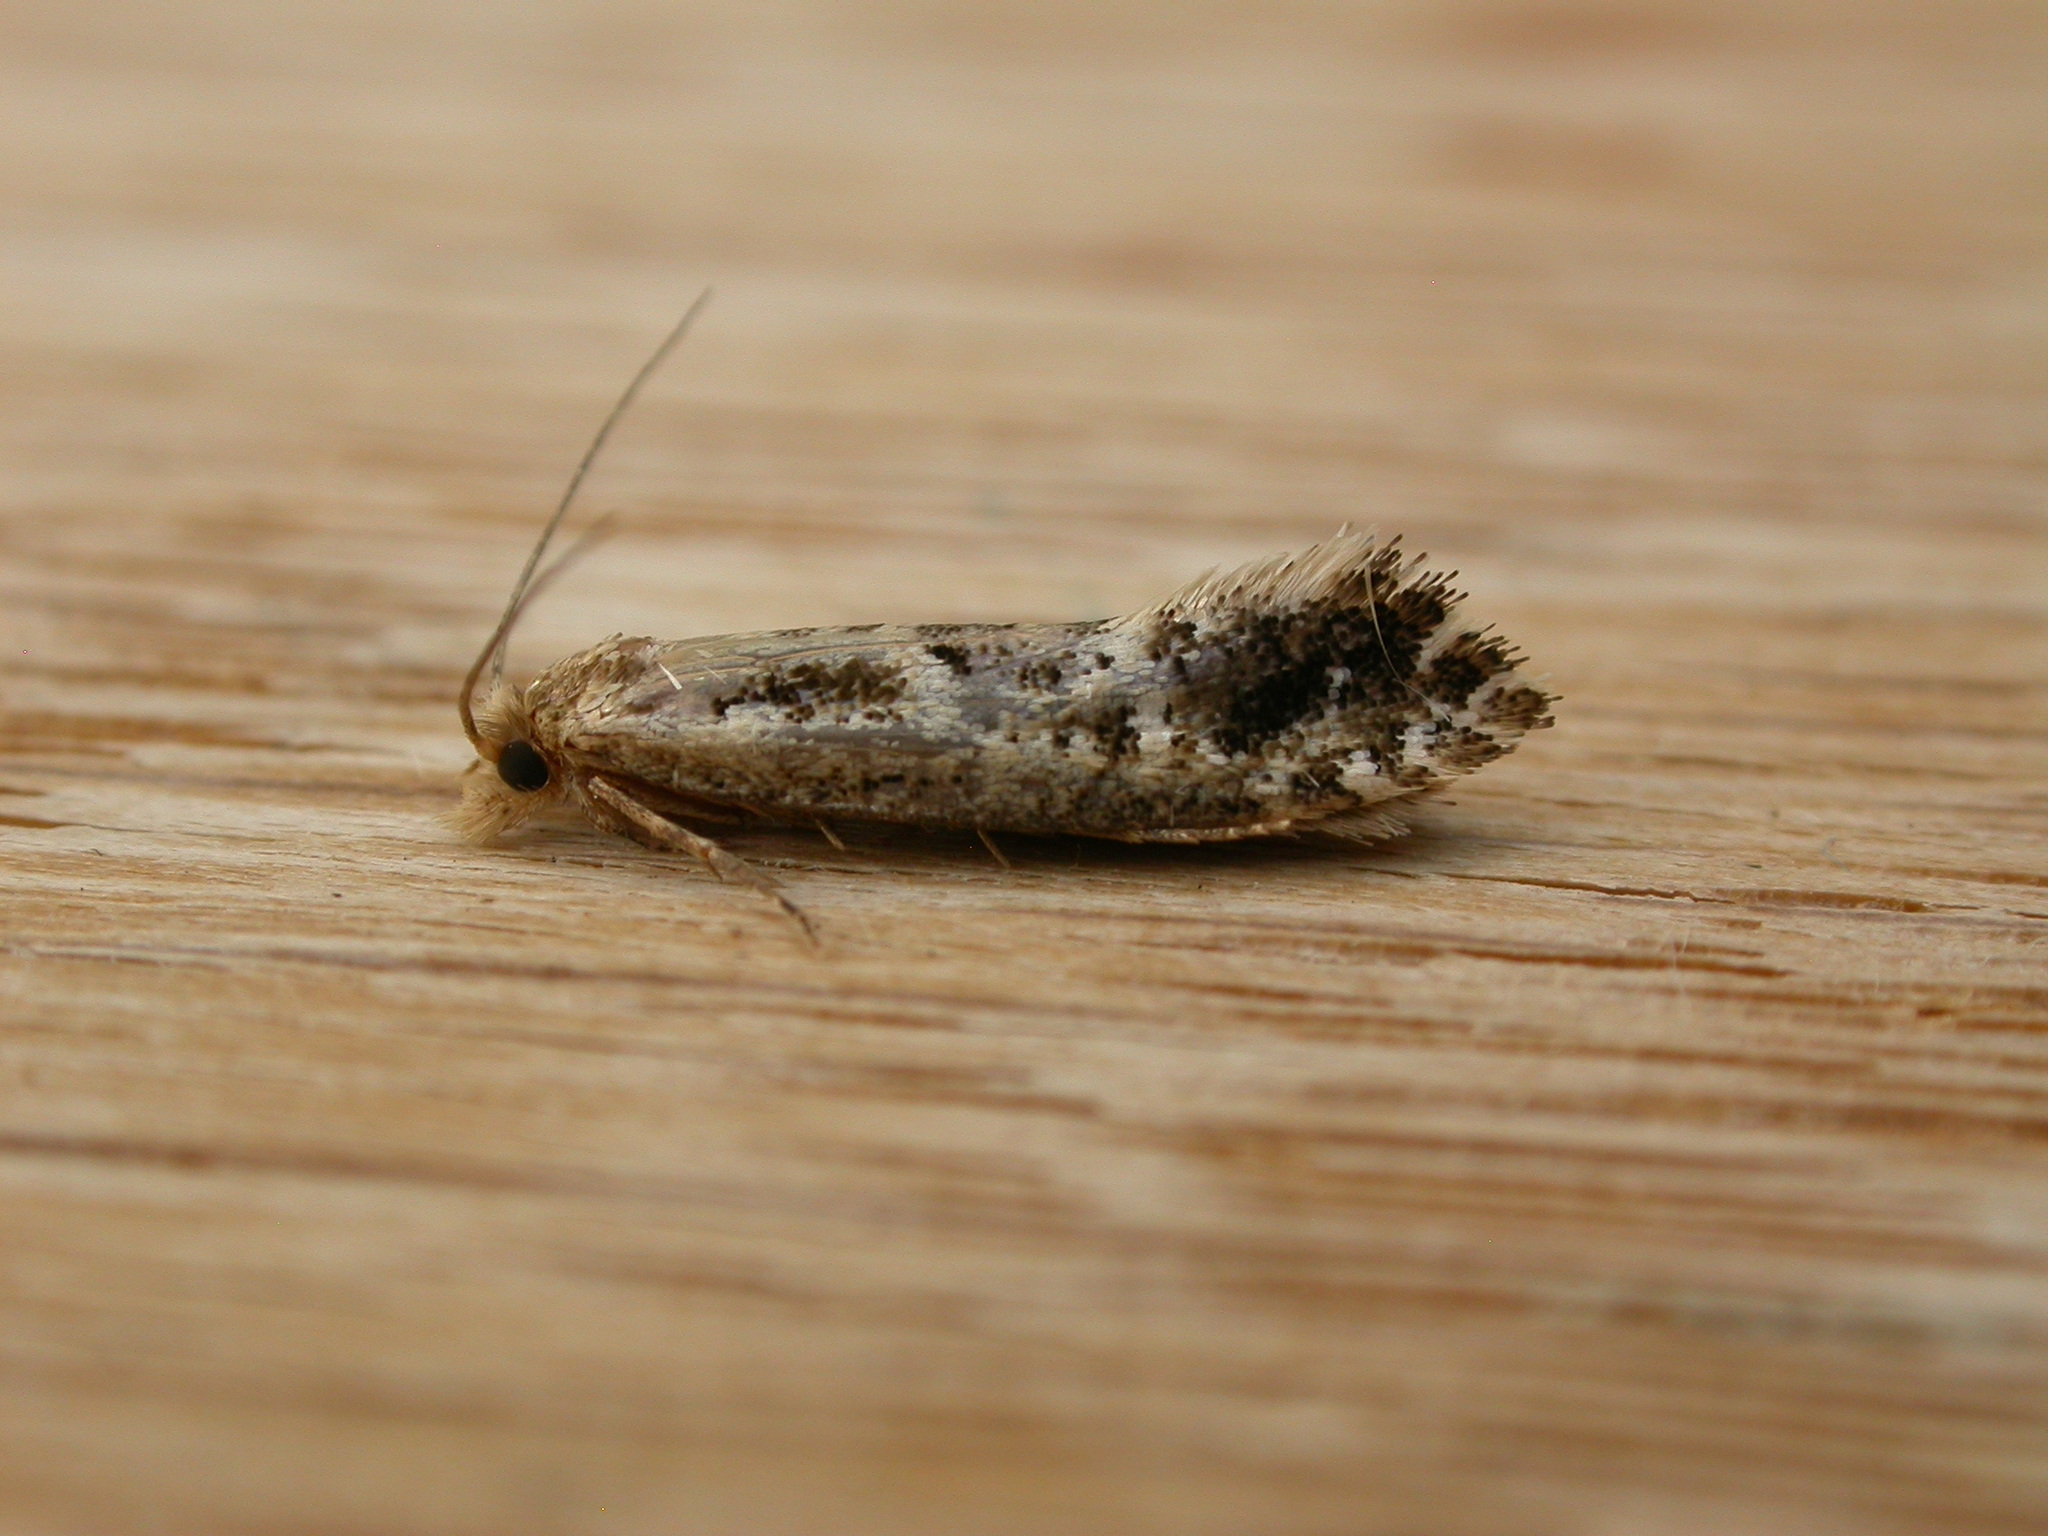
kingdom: Animalia
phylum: Arthropoda
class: Insecta
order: Lepidoptera
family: Tineidae
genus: Moerarchis
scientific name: Moerarchis inconcisella
